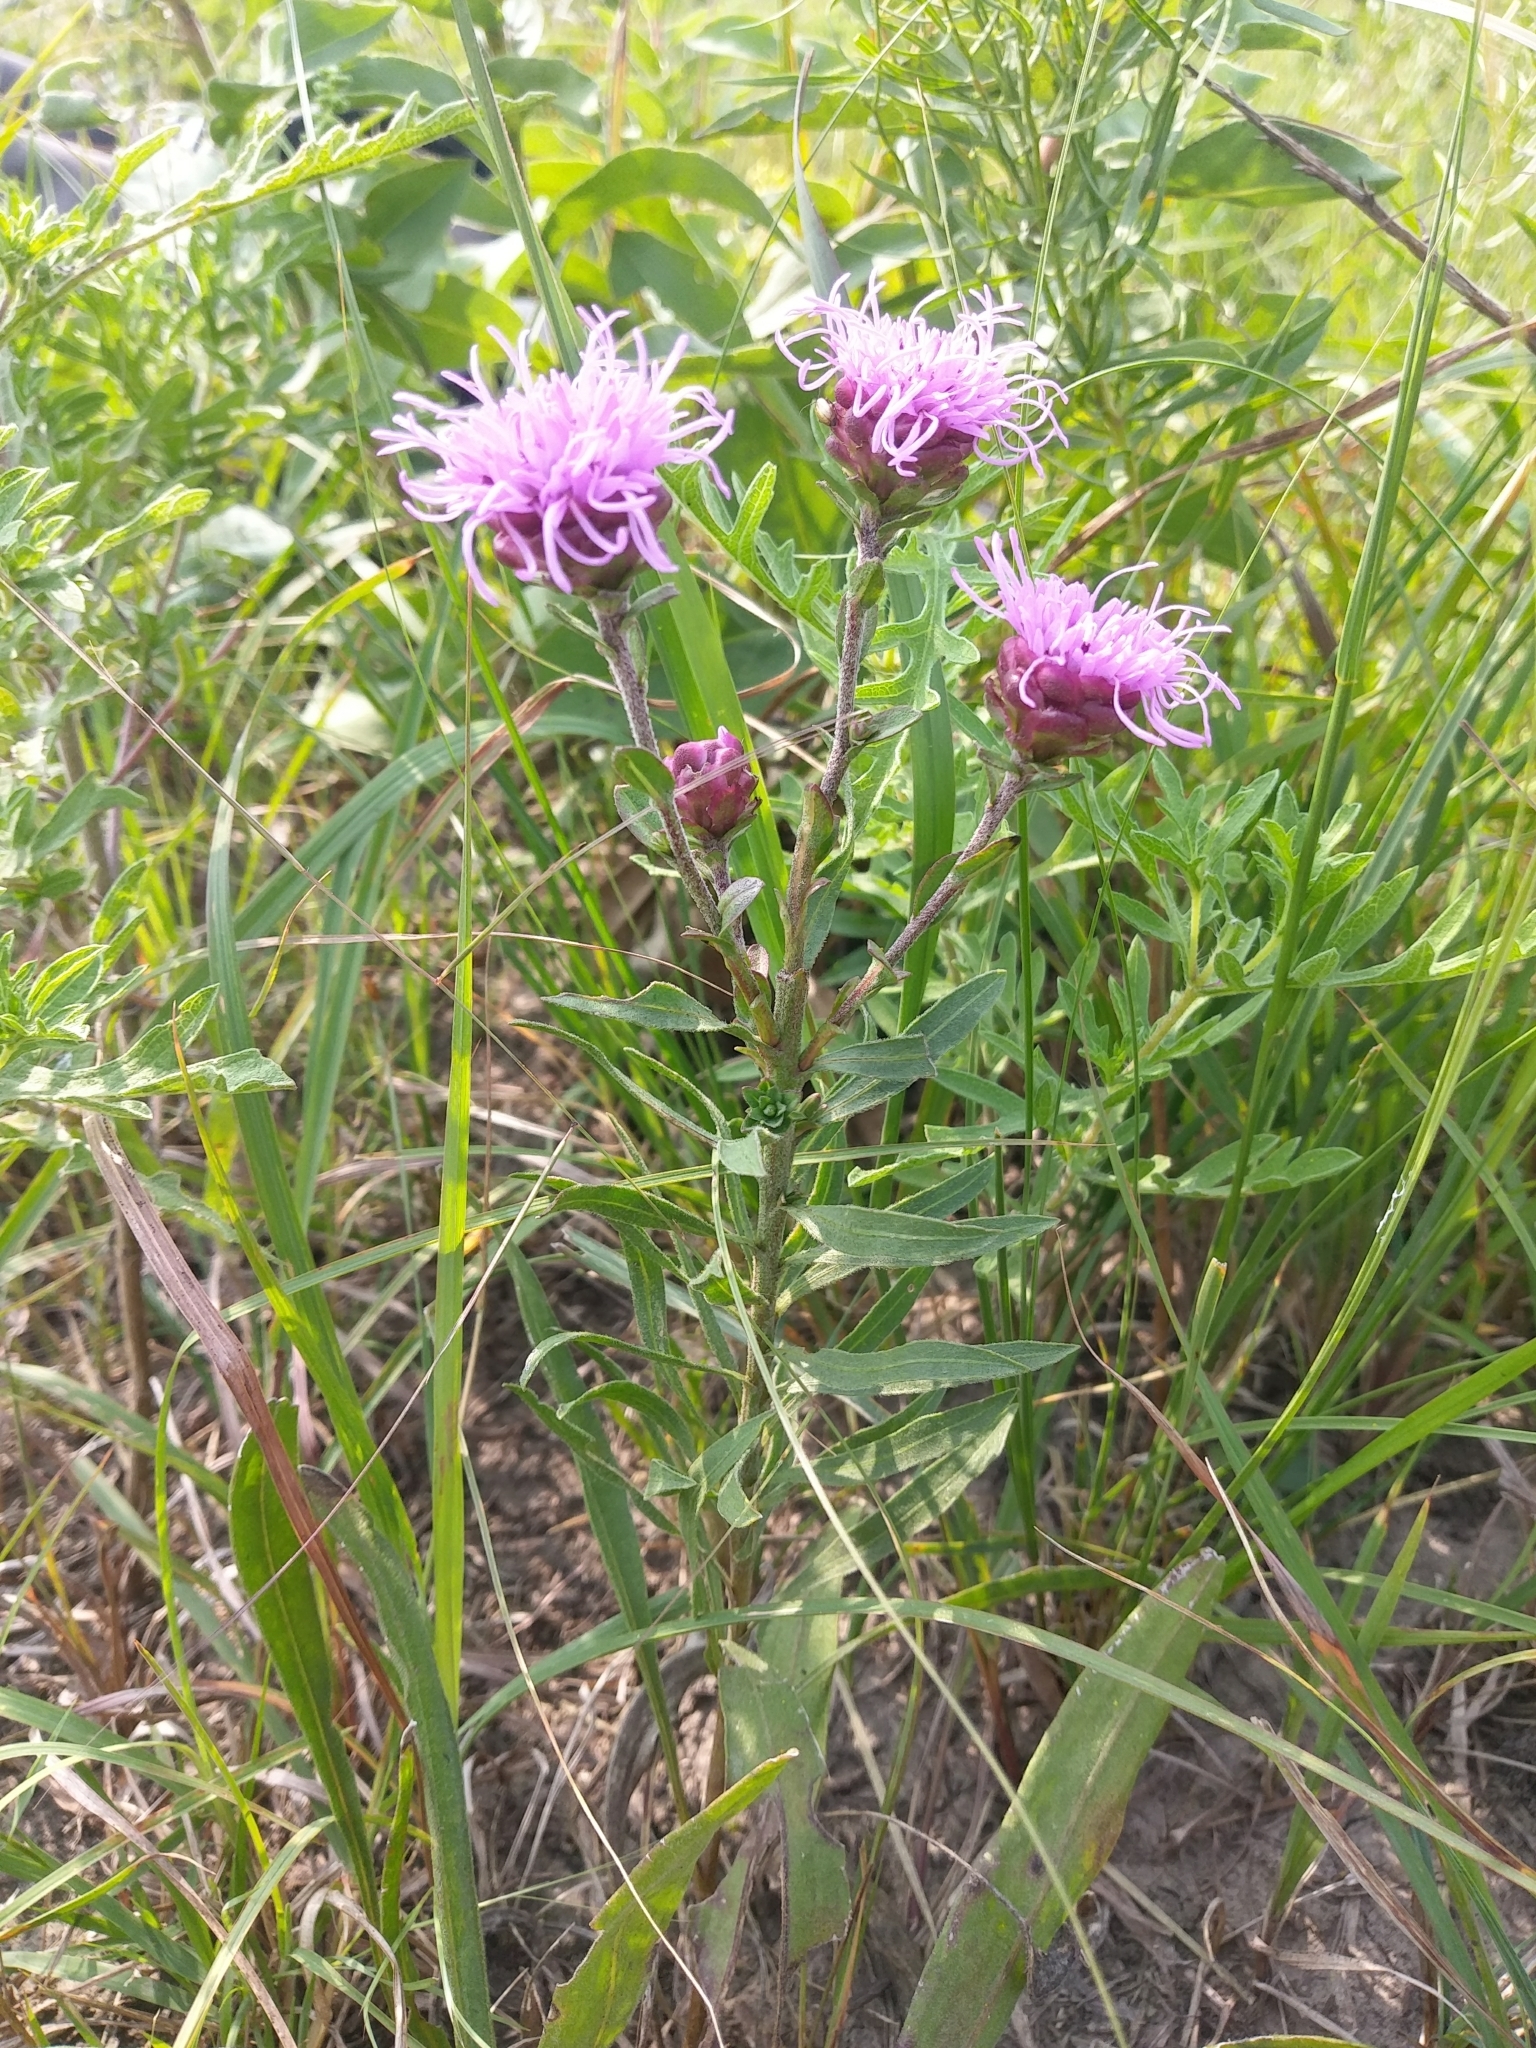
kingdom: Plantae
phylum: Tracheophyta
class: Magnoliopsida
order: Asterales
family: Asteraceae
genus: Liatris
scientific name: Liatris aspera
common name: Lacerate blazing-star
